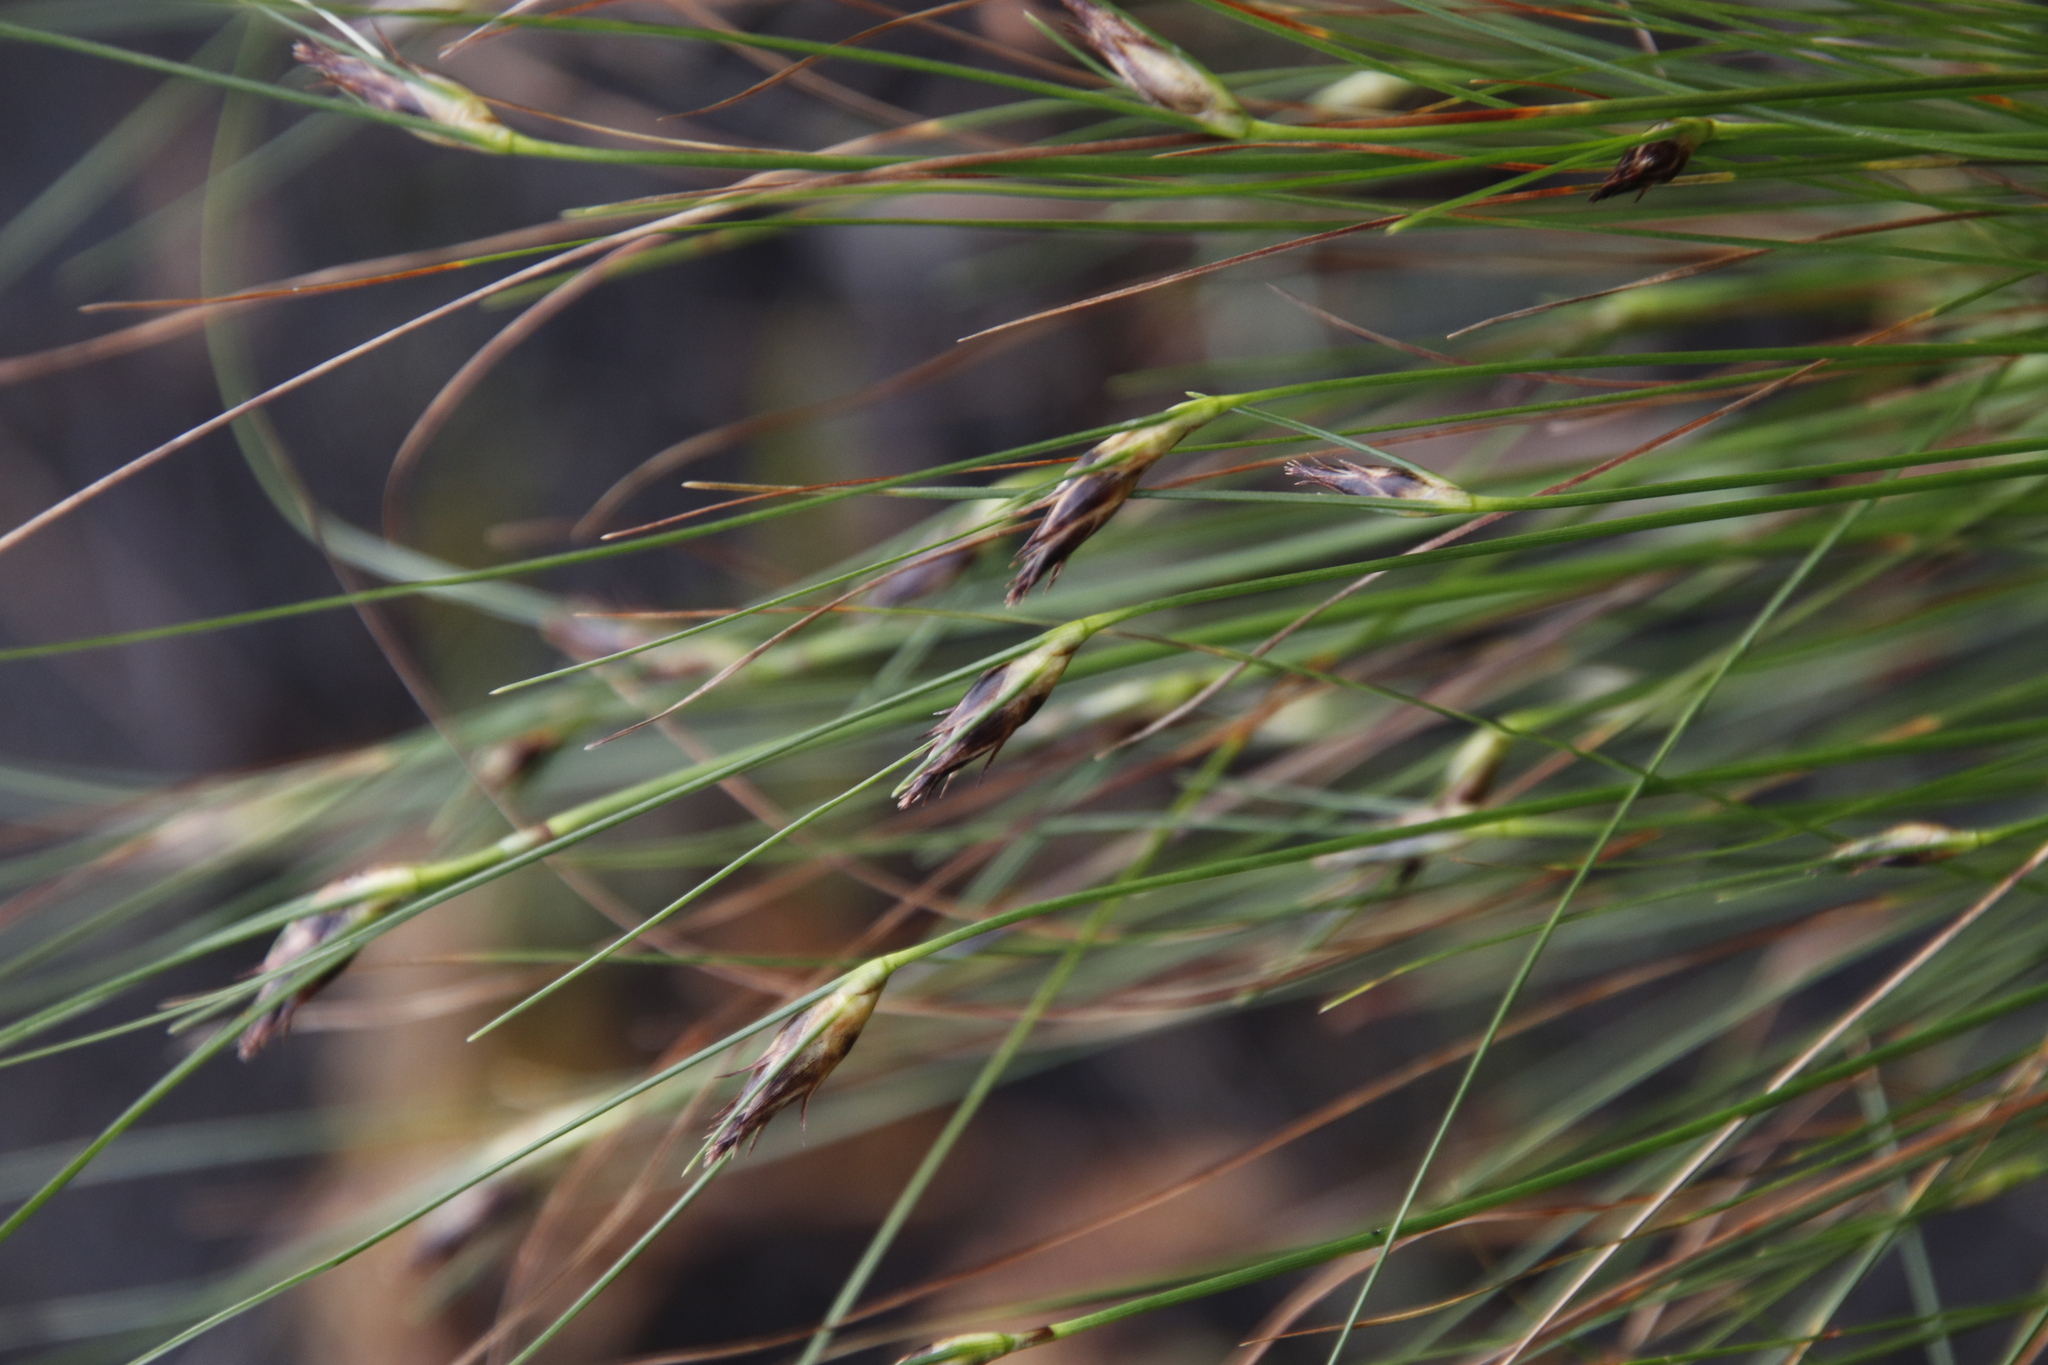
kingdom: Plantae
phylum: Tracheophyta
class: Liliopsida
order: Poales
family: Cyperaceae
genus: Ficinia
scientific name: Ficinia nigrescens
